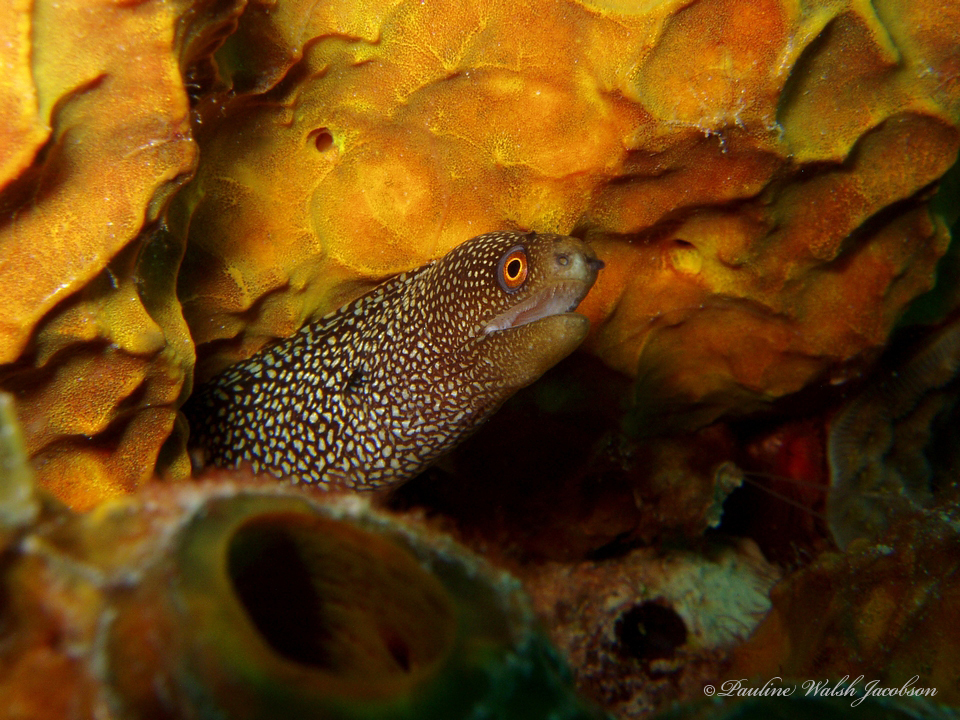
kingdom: Animalia
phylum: Chordata
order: Anguilliformes
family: Muraenidae
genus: Gymnothorax
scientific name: Gymnothorax miliaris
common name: Goldentail moray
